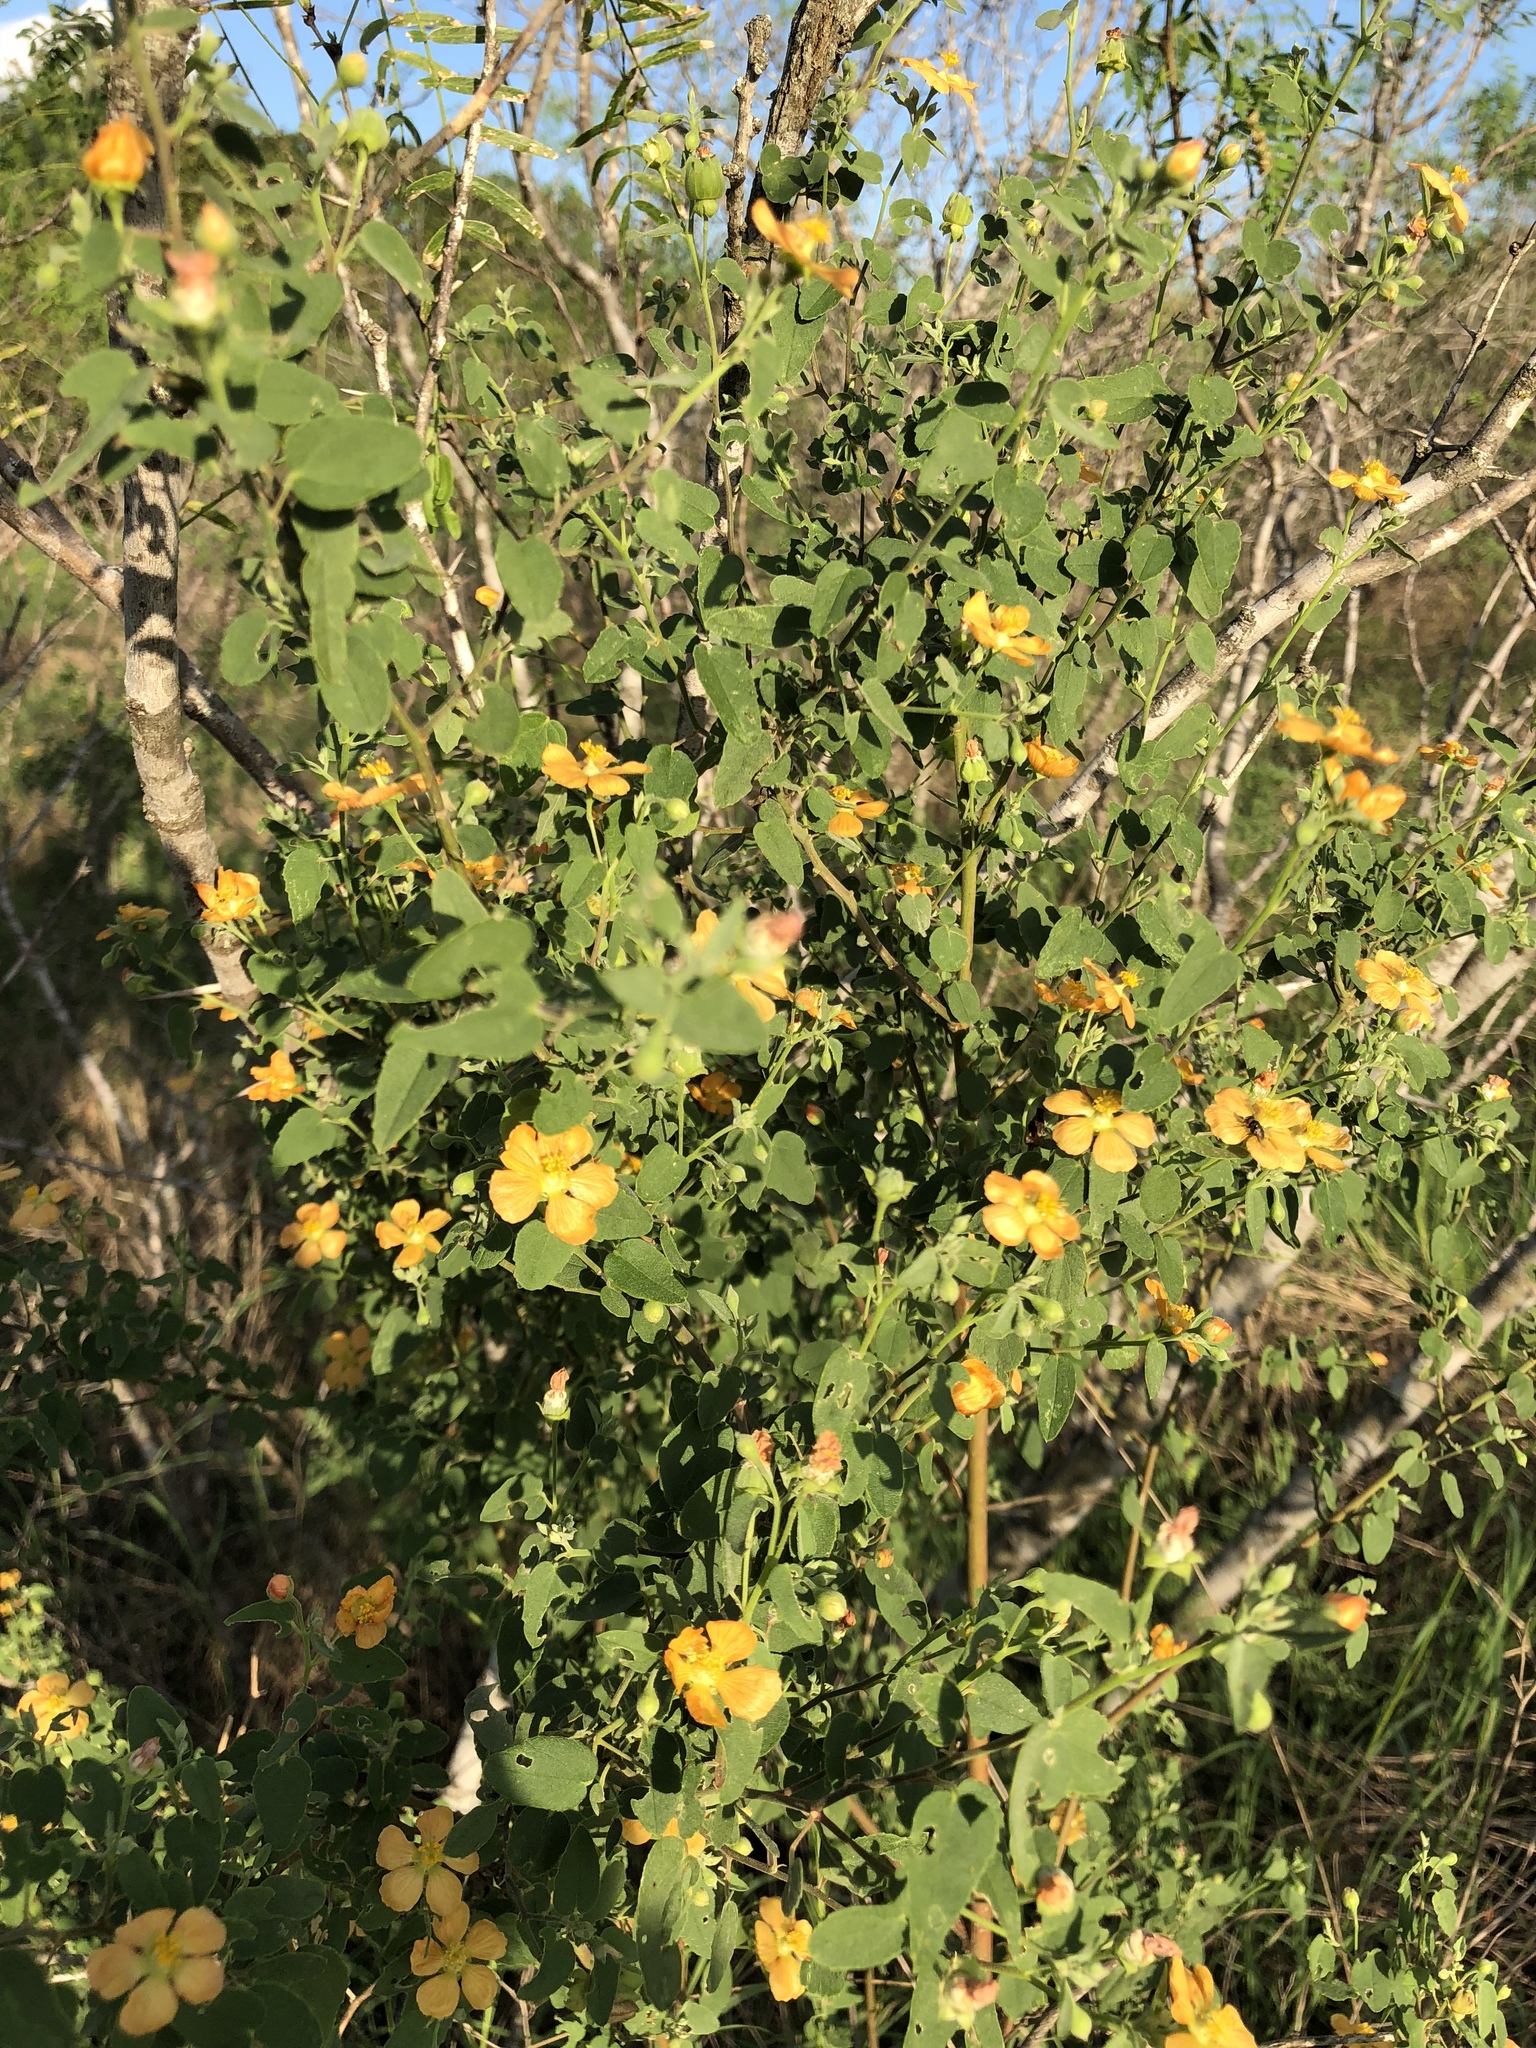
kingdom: Plantae
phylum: Tracheophyta
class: Magnoliopsida
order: Malvales
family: Malvaceae
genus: Abutilon
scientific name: Abutilon fruticosum
